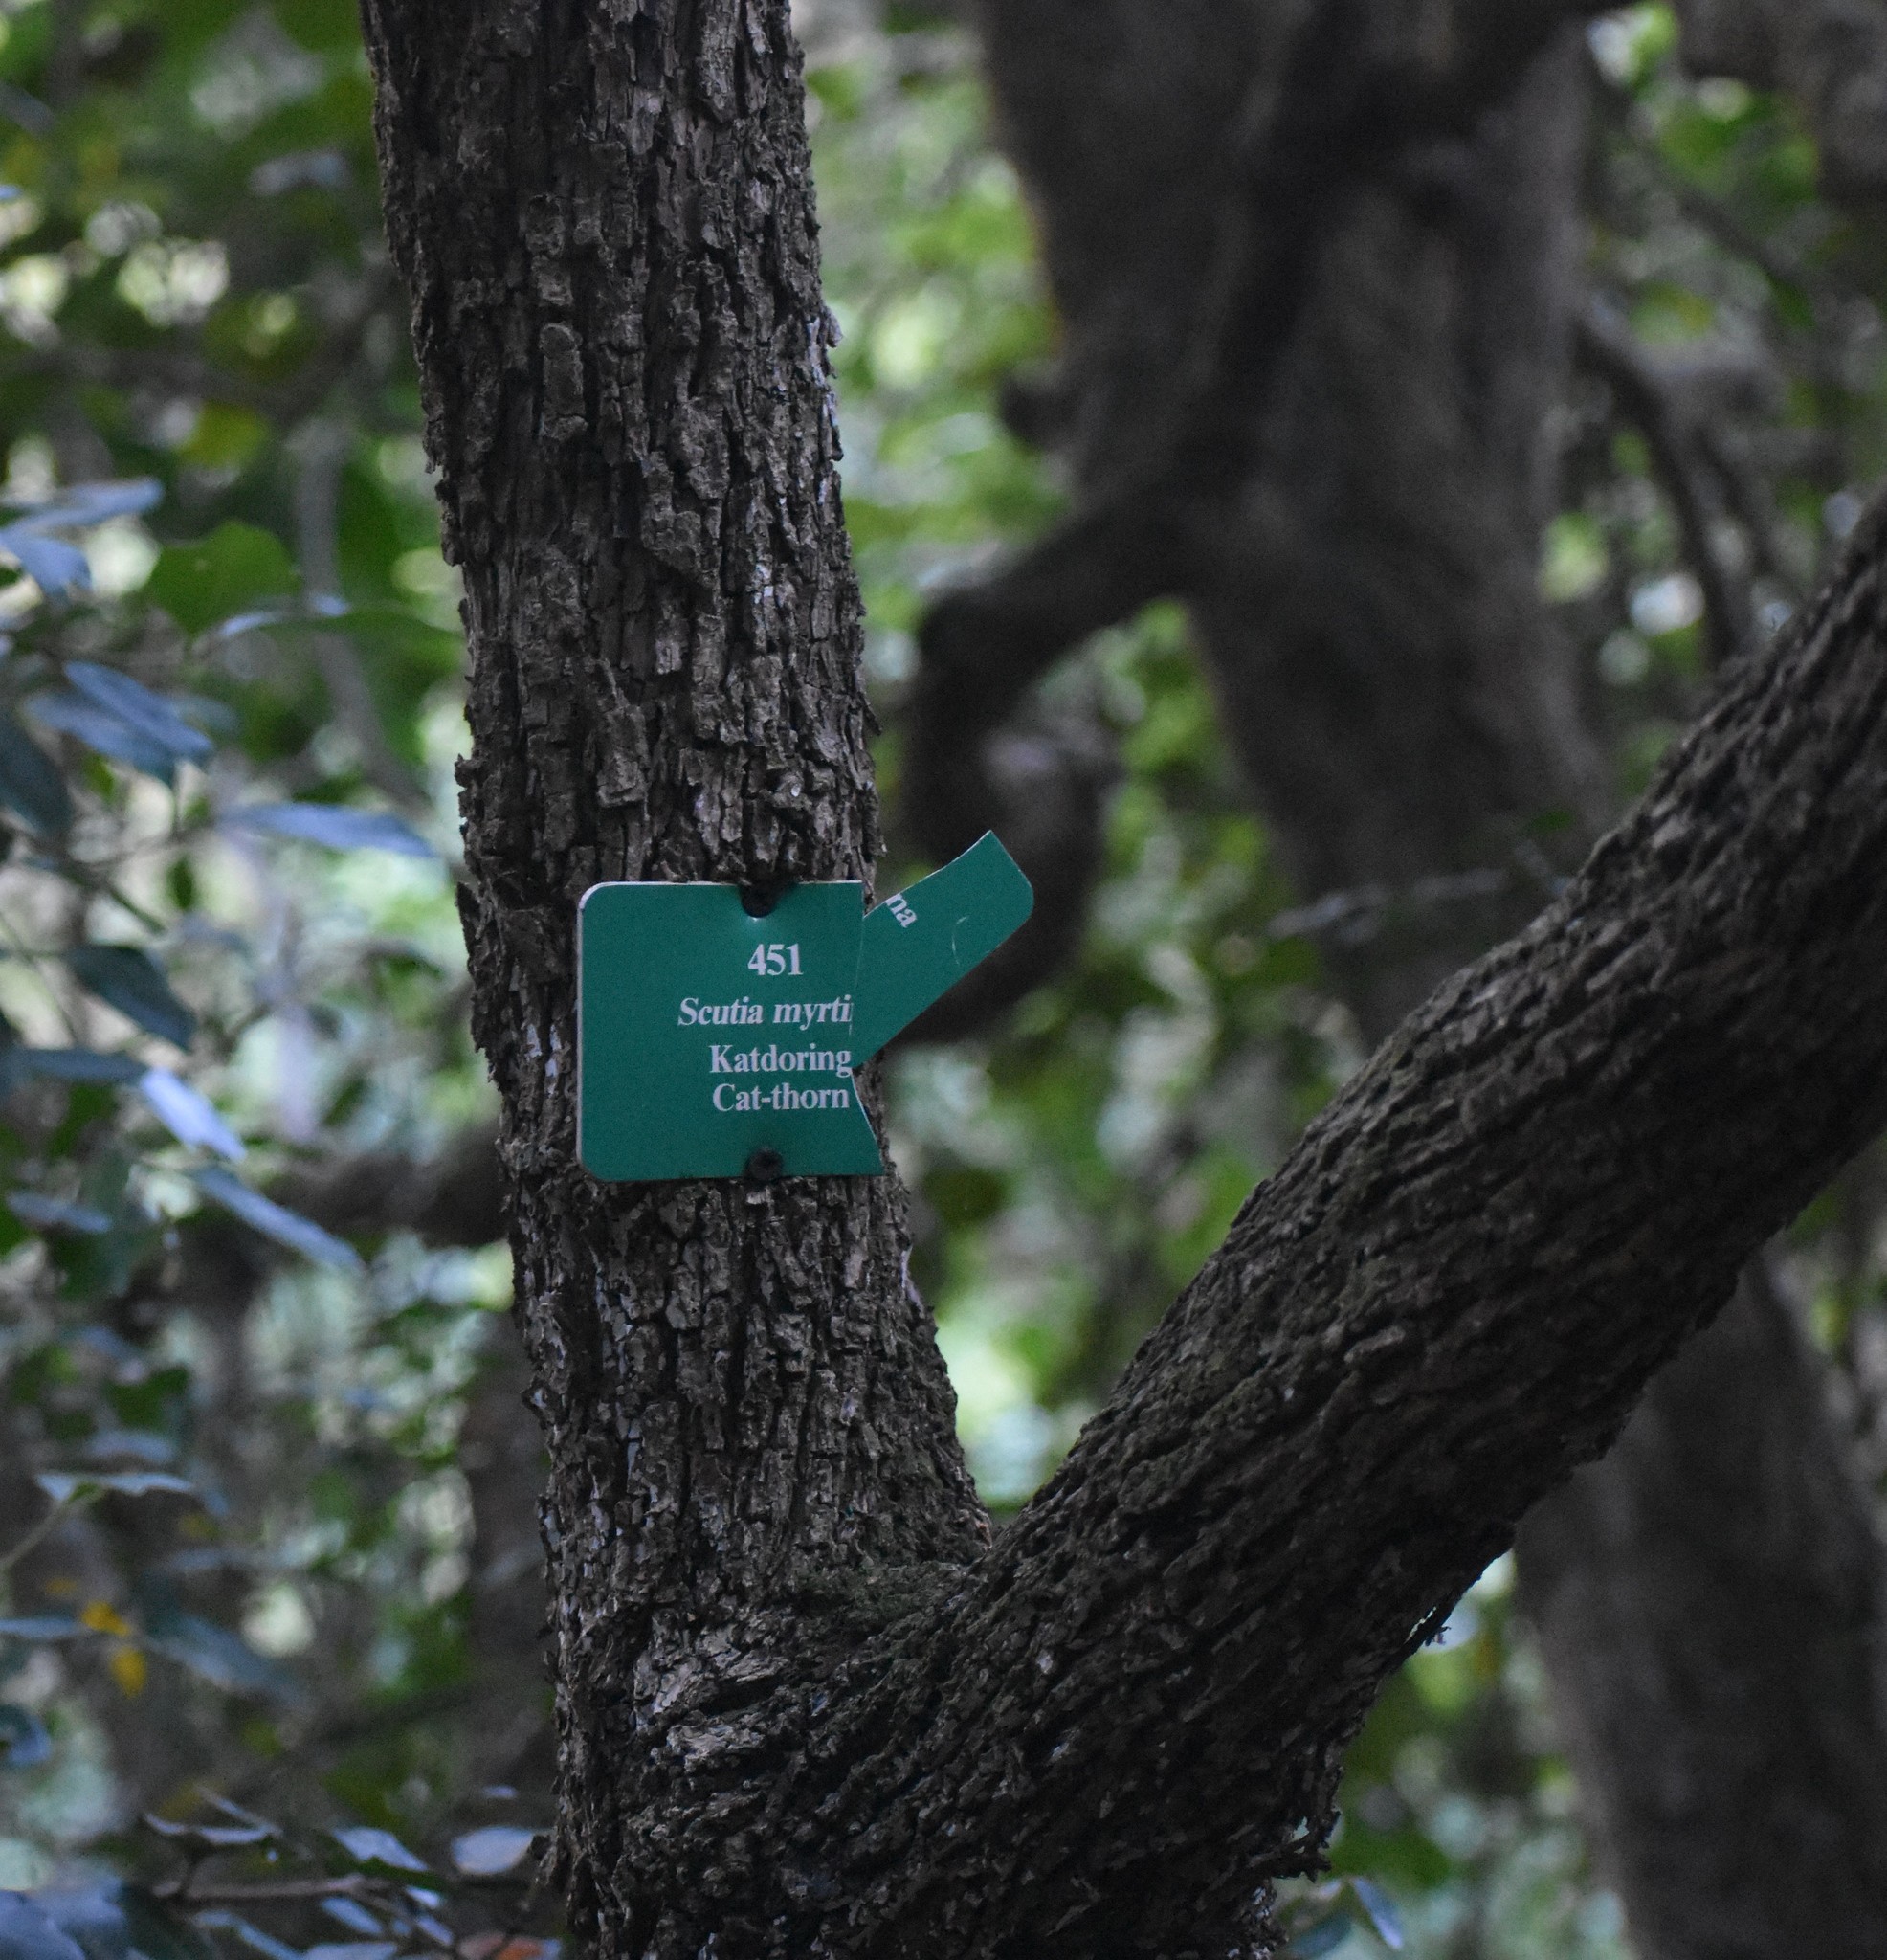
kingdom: Plantae
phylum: Tracheophyta
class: Magnoliopsida
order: Rosales
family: Rhamnaceae
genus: Scutia
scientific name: Scutia myrtina
